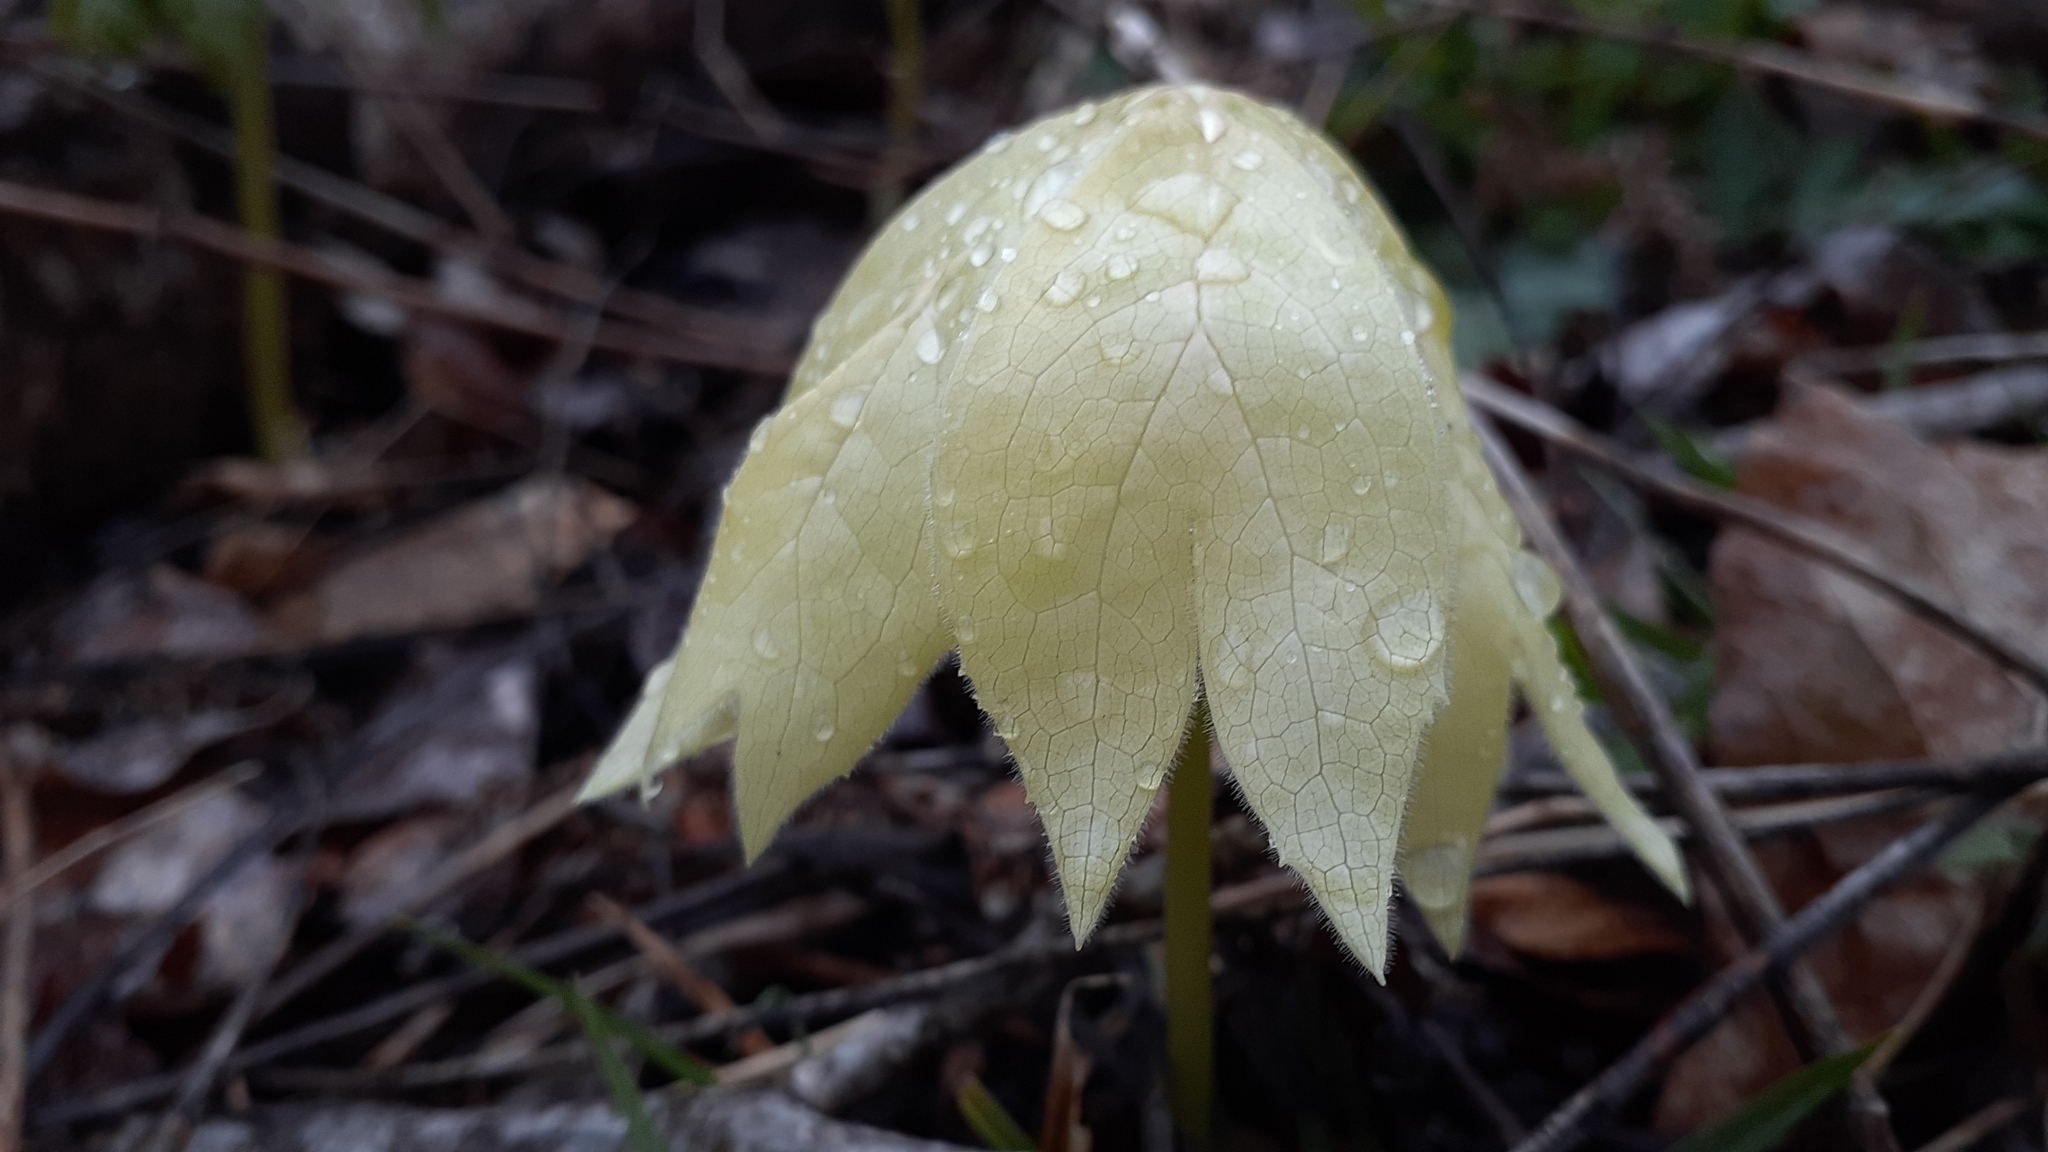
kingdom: Plantae
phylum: Tracheophyta
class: Magnoliopsida
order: Ranunculales
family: Berberidaceae
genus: Podophyllum
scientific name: Podophyllum peltatum
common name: Wild mandrake
